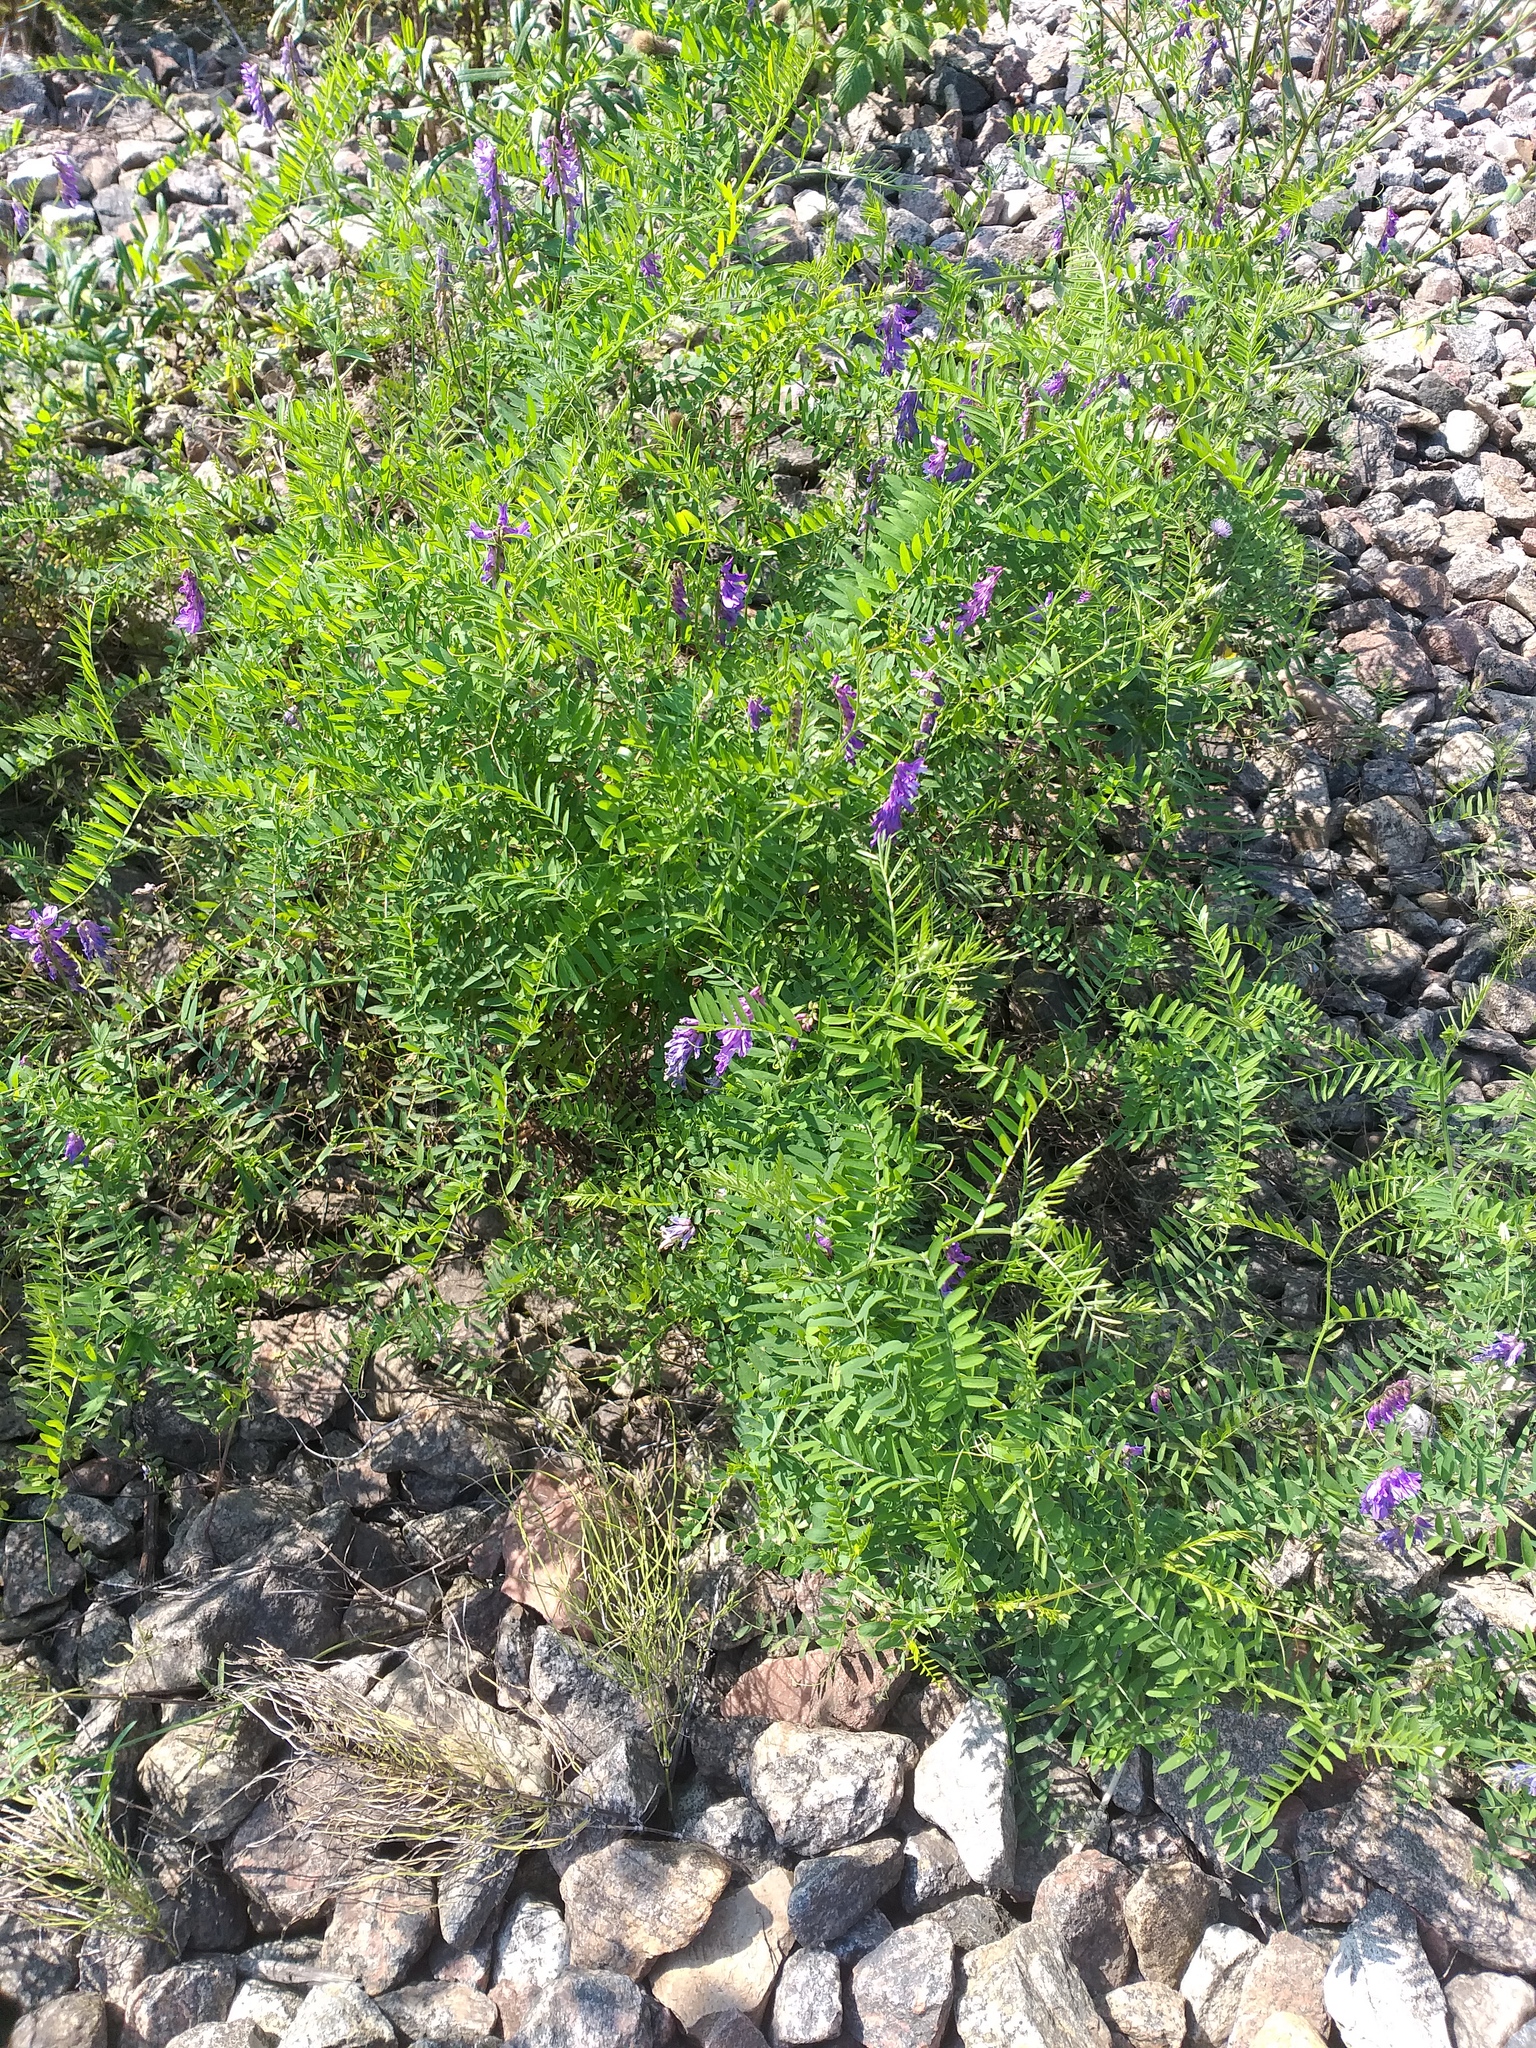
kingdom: Plantae
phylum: Tracheophyta
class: Magnoliopsida
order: Fabales
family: Fabaceae
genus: Vicia
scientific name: Vicia cracca
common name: Bird vetch
